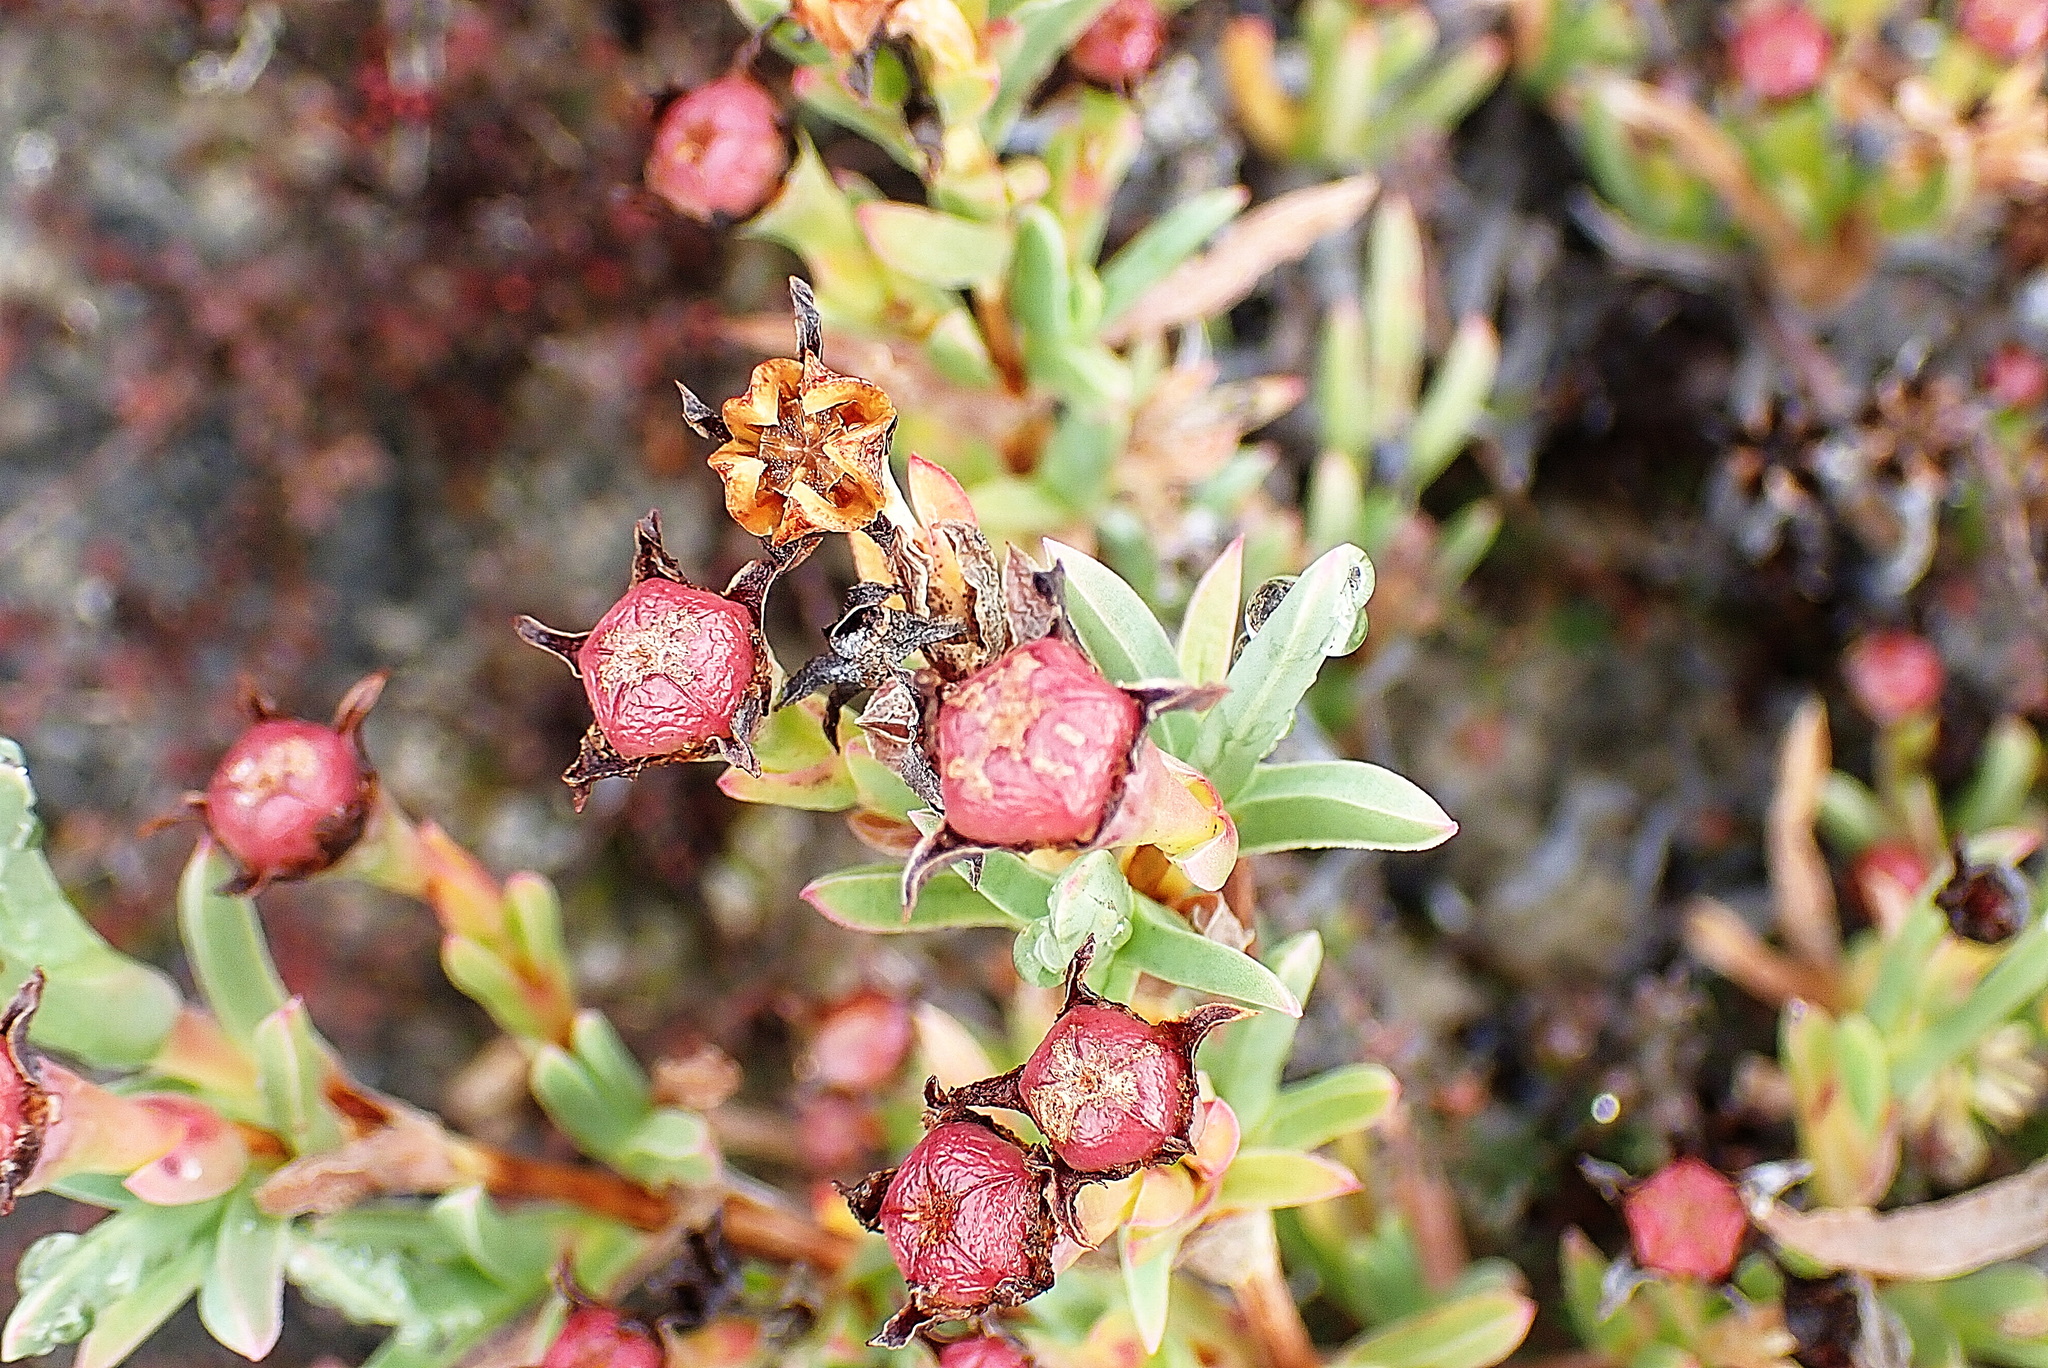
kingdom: Plantae
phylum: Tracheophyta
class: Magnoliopsida
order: Caryophyllales
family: Aizoaceae
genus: Ruschia
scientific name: Ruschia calcicola
